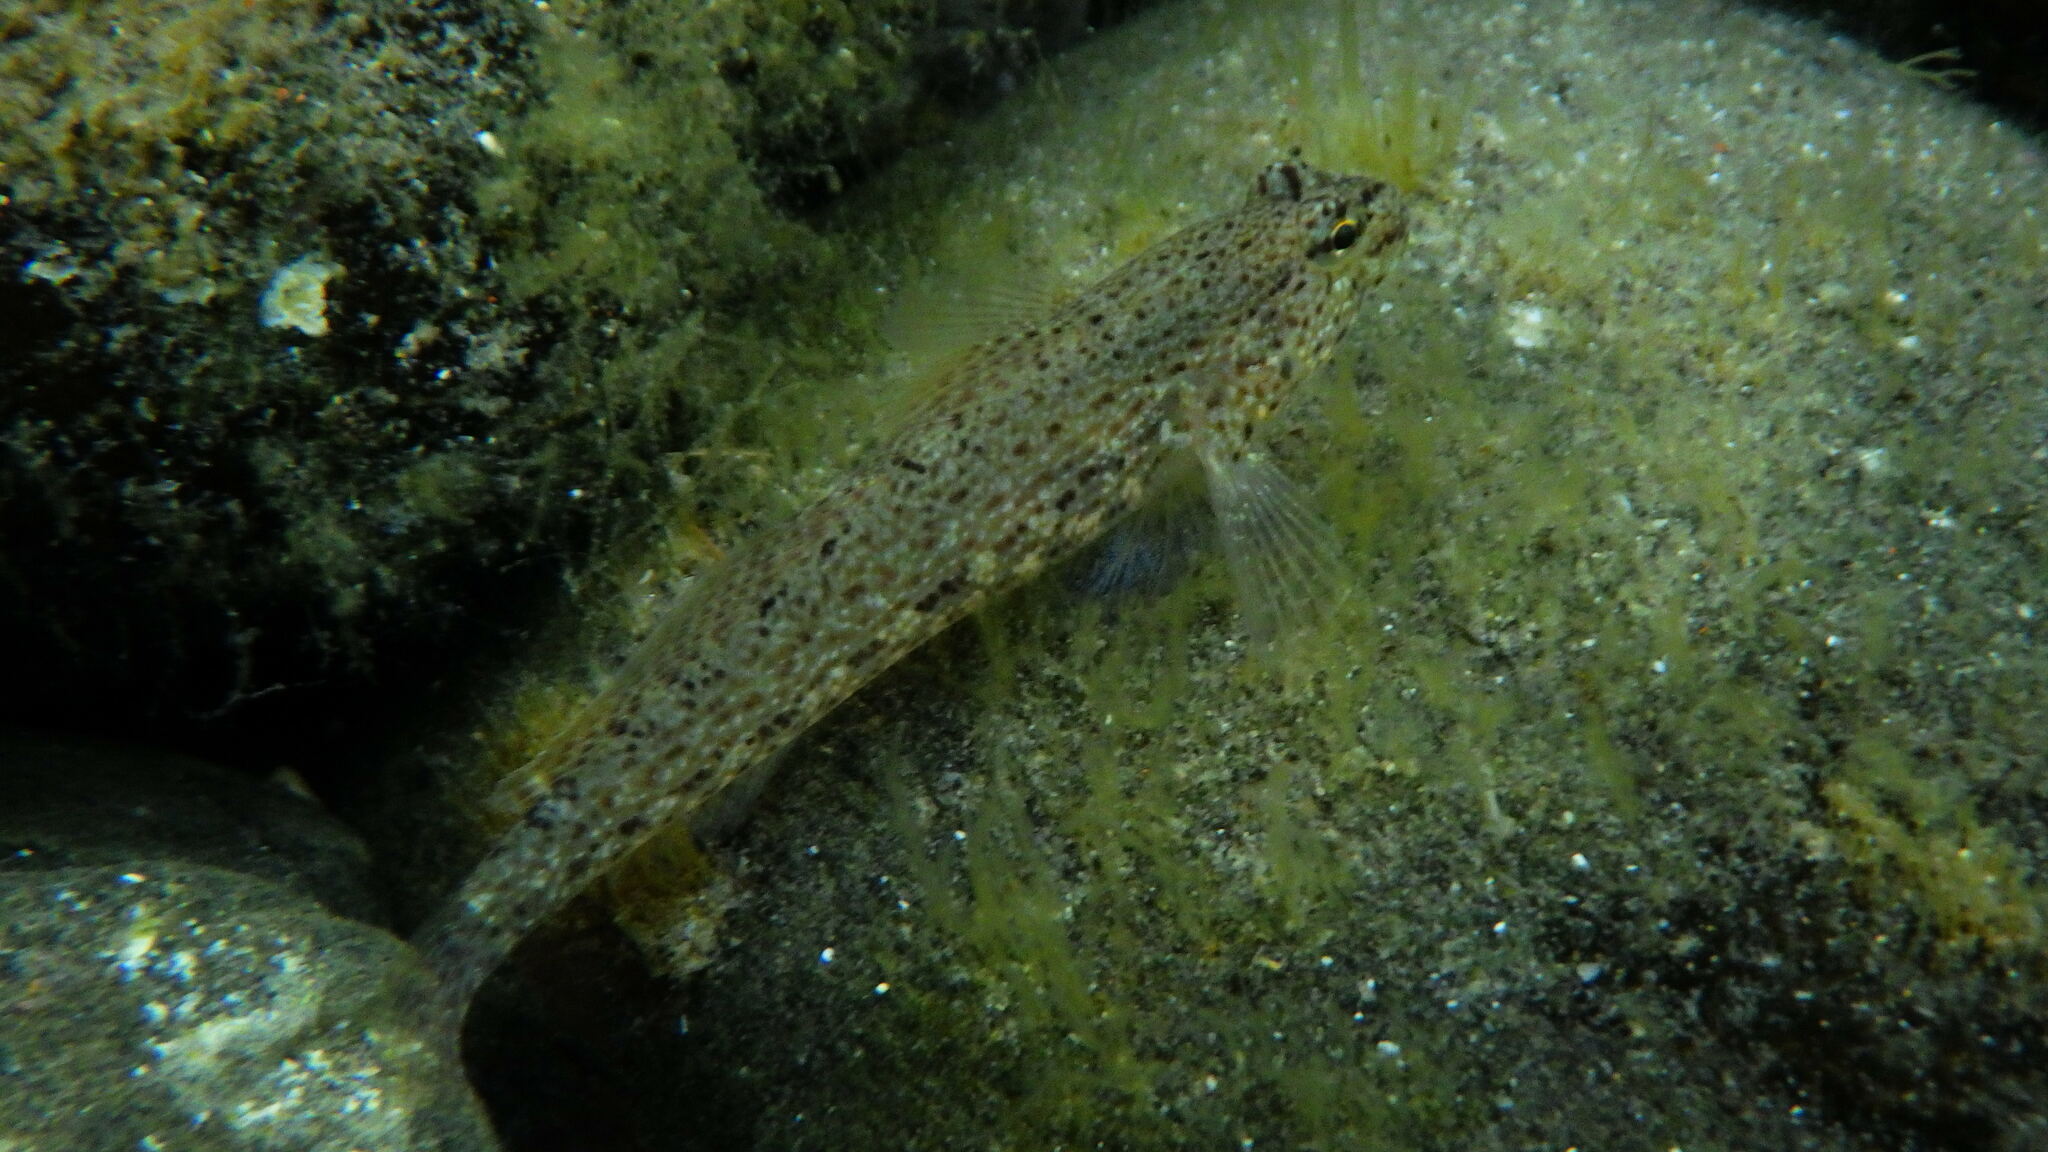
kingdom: Animalia
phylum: Chordata
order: Perciformes
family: Gobiidae
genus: Gobius
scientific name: Gobius incognitus
